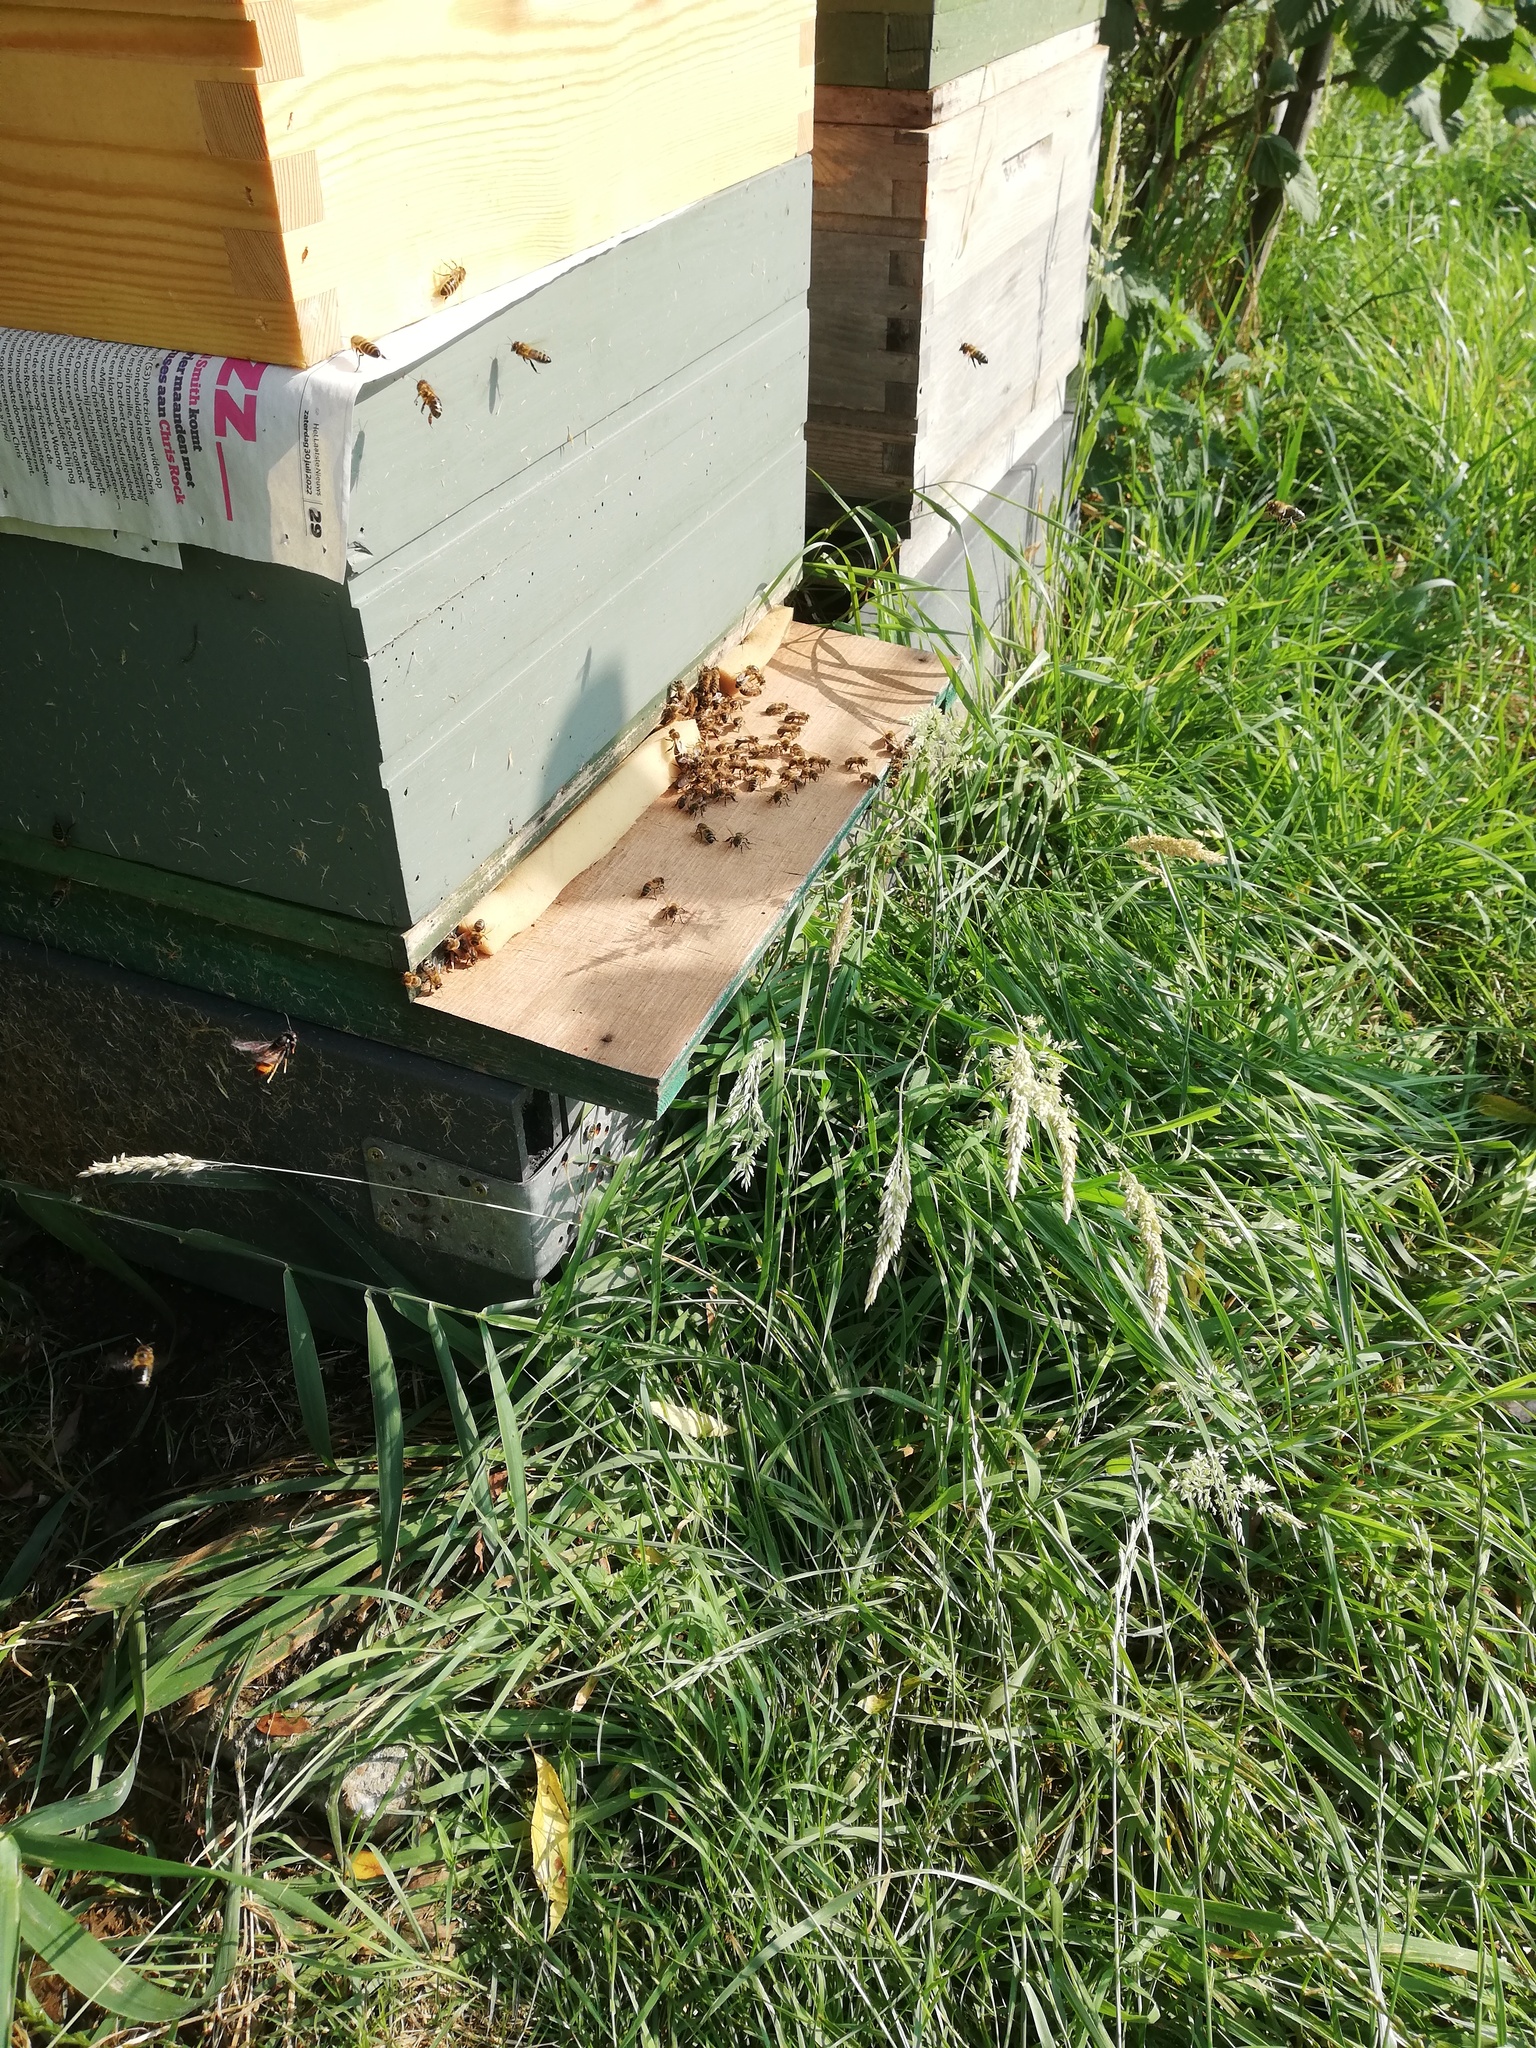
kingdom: Animalia
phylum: Arthropoda
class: Insecta
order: Hymenoptera
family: Vespidae
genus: Vespa
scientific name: Vespa velutina
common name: Asian hornet
